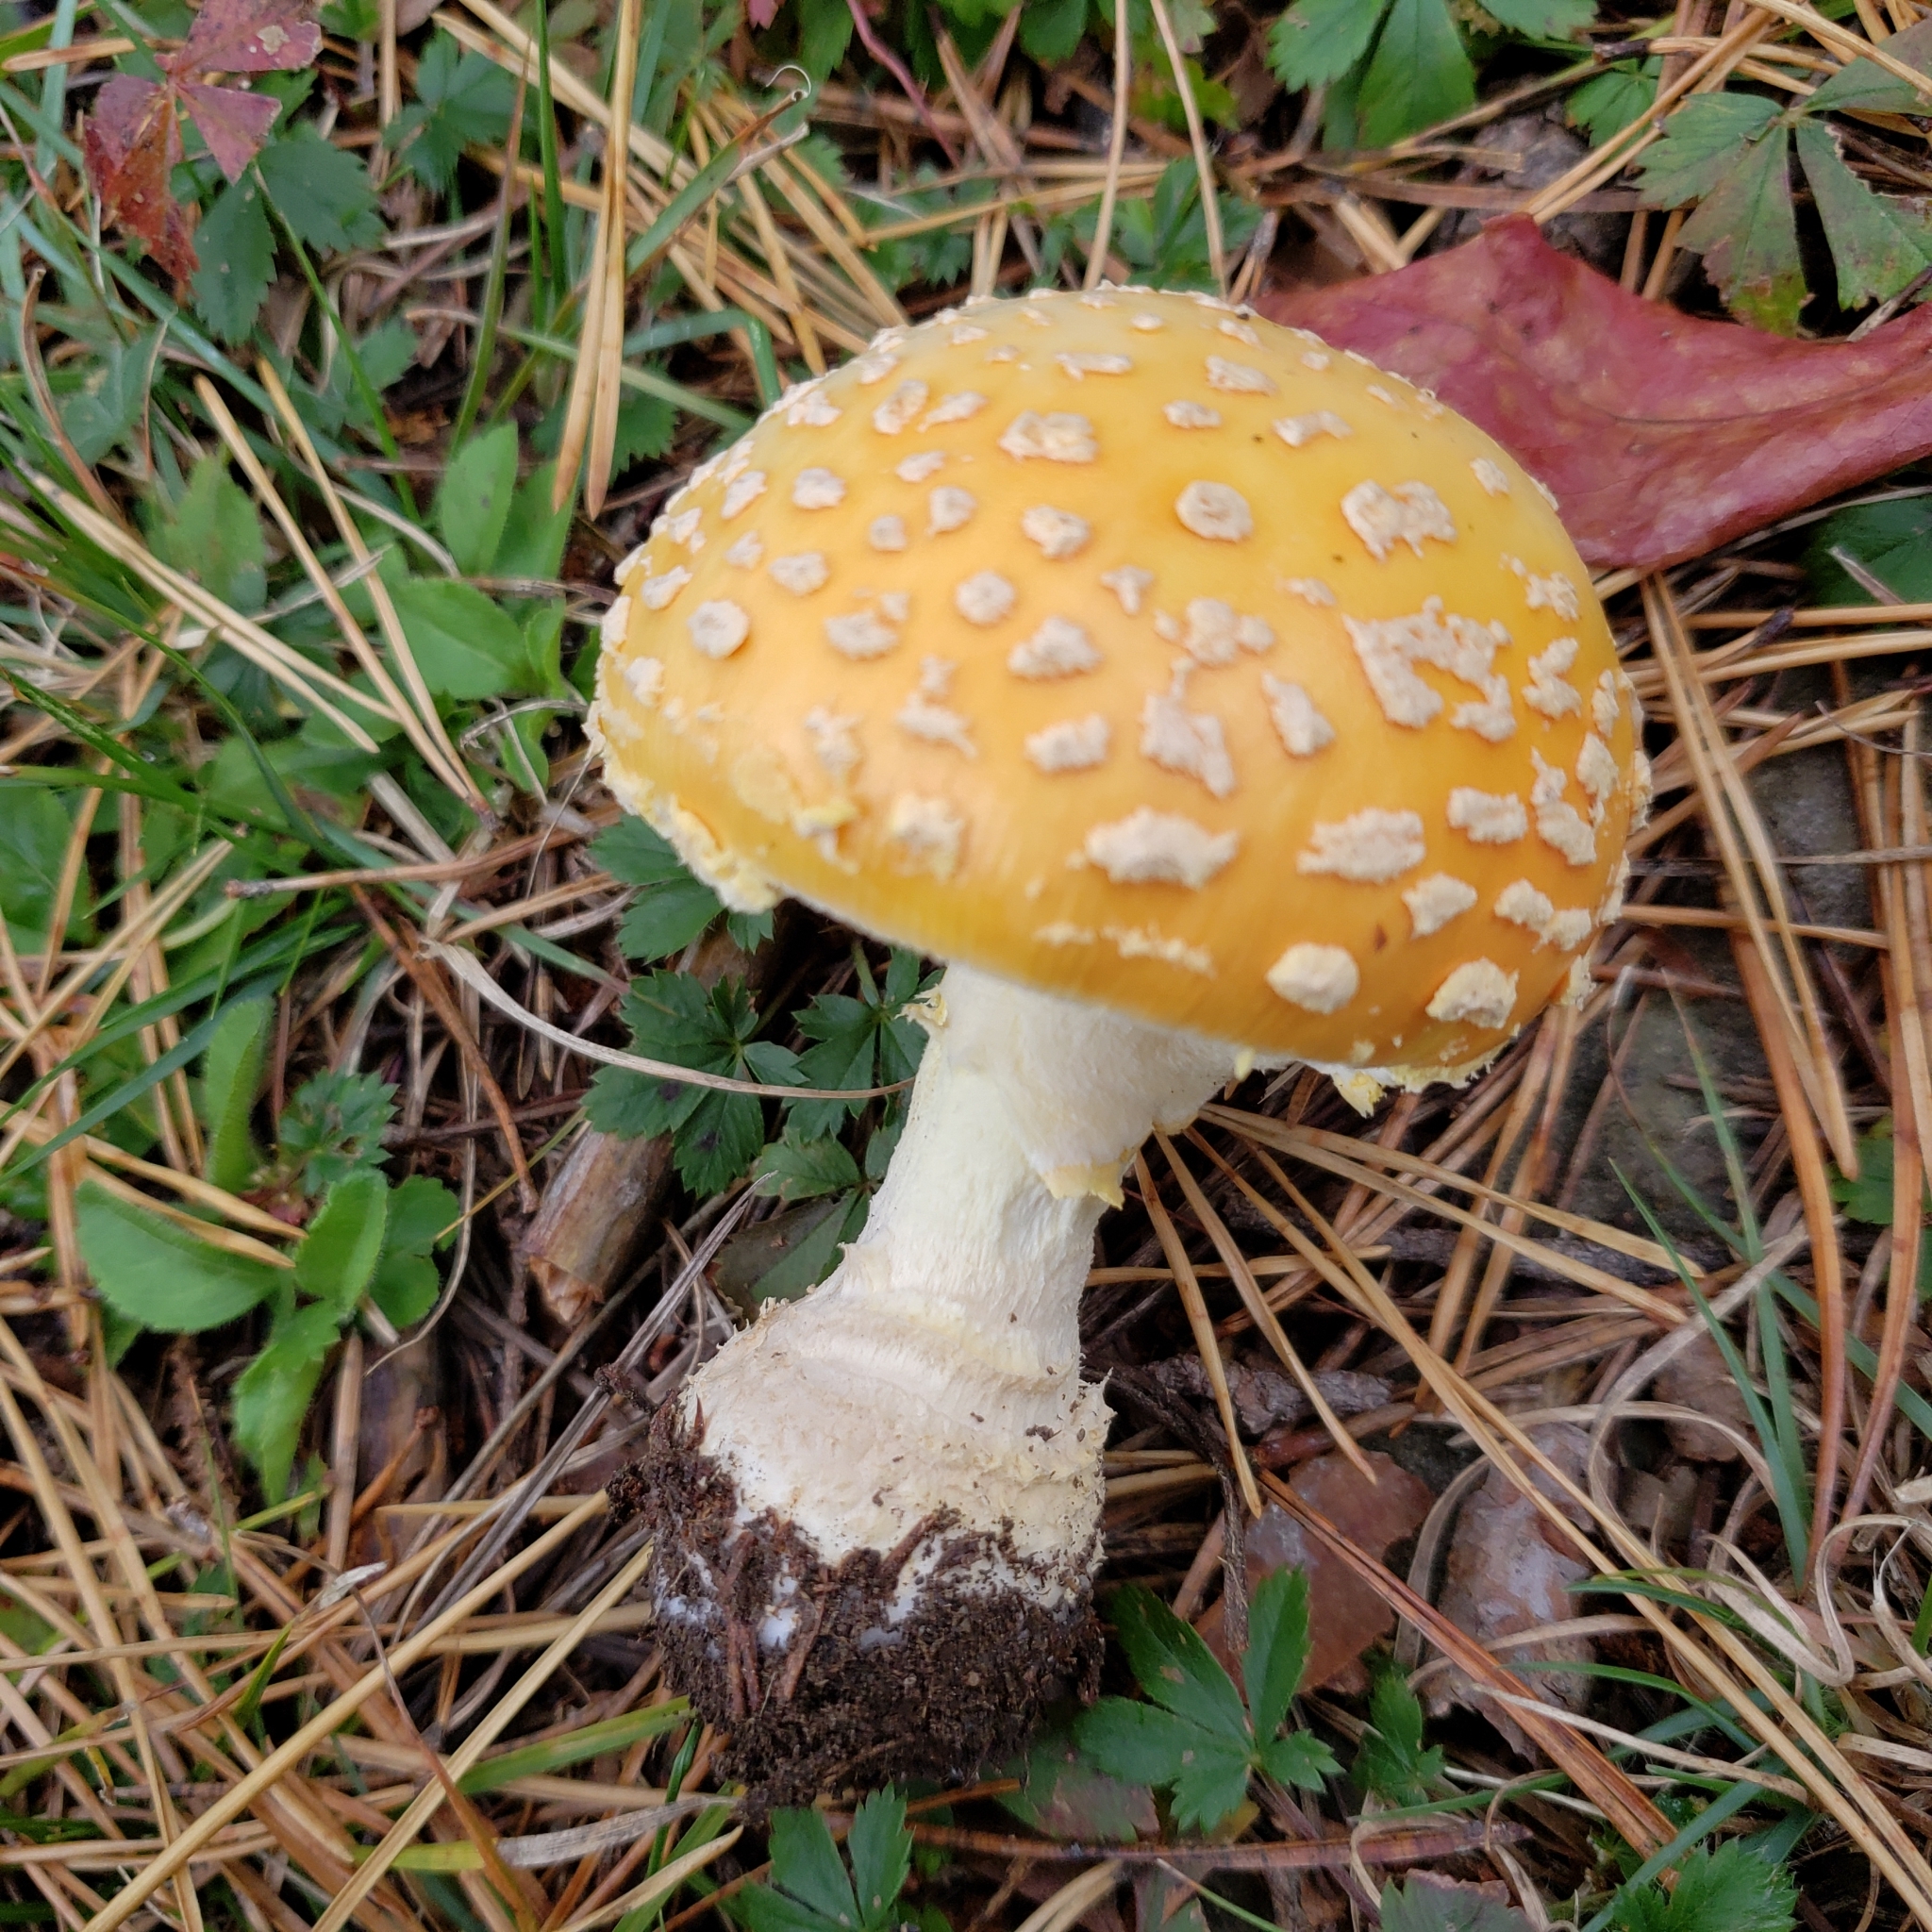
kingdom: Fungi
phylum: Basidiomycota
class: Agaricomycetes
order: Agaricales
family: Amanitaceae
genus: Amanita
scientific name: Amanita muscaria
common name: Fly agaric
